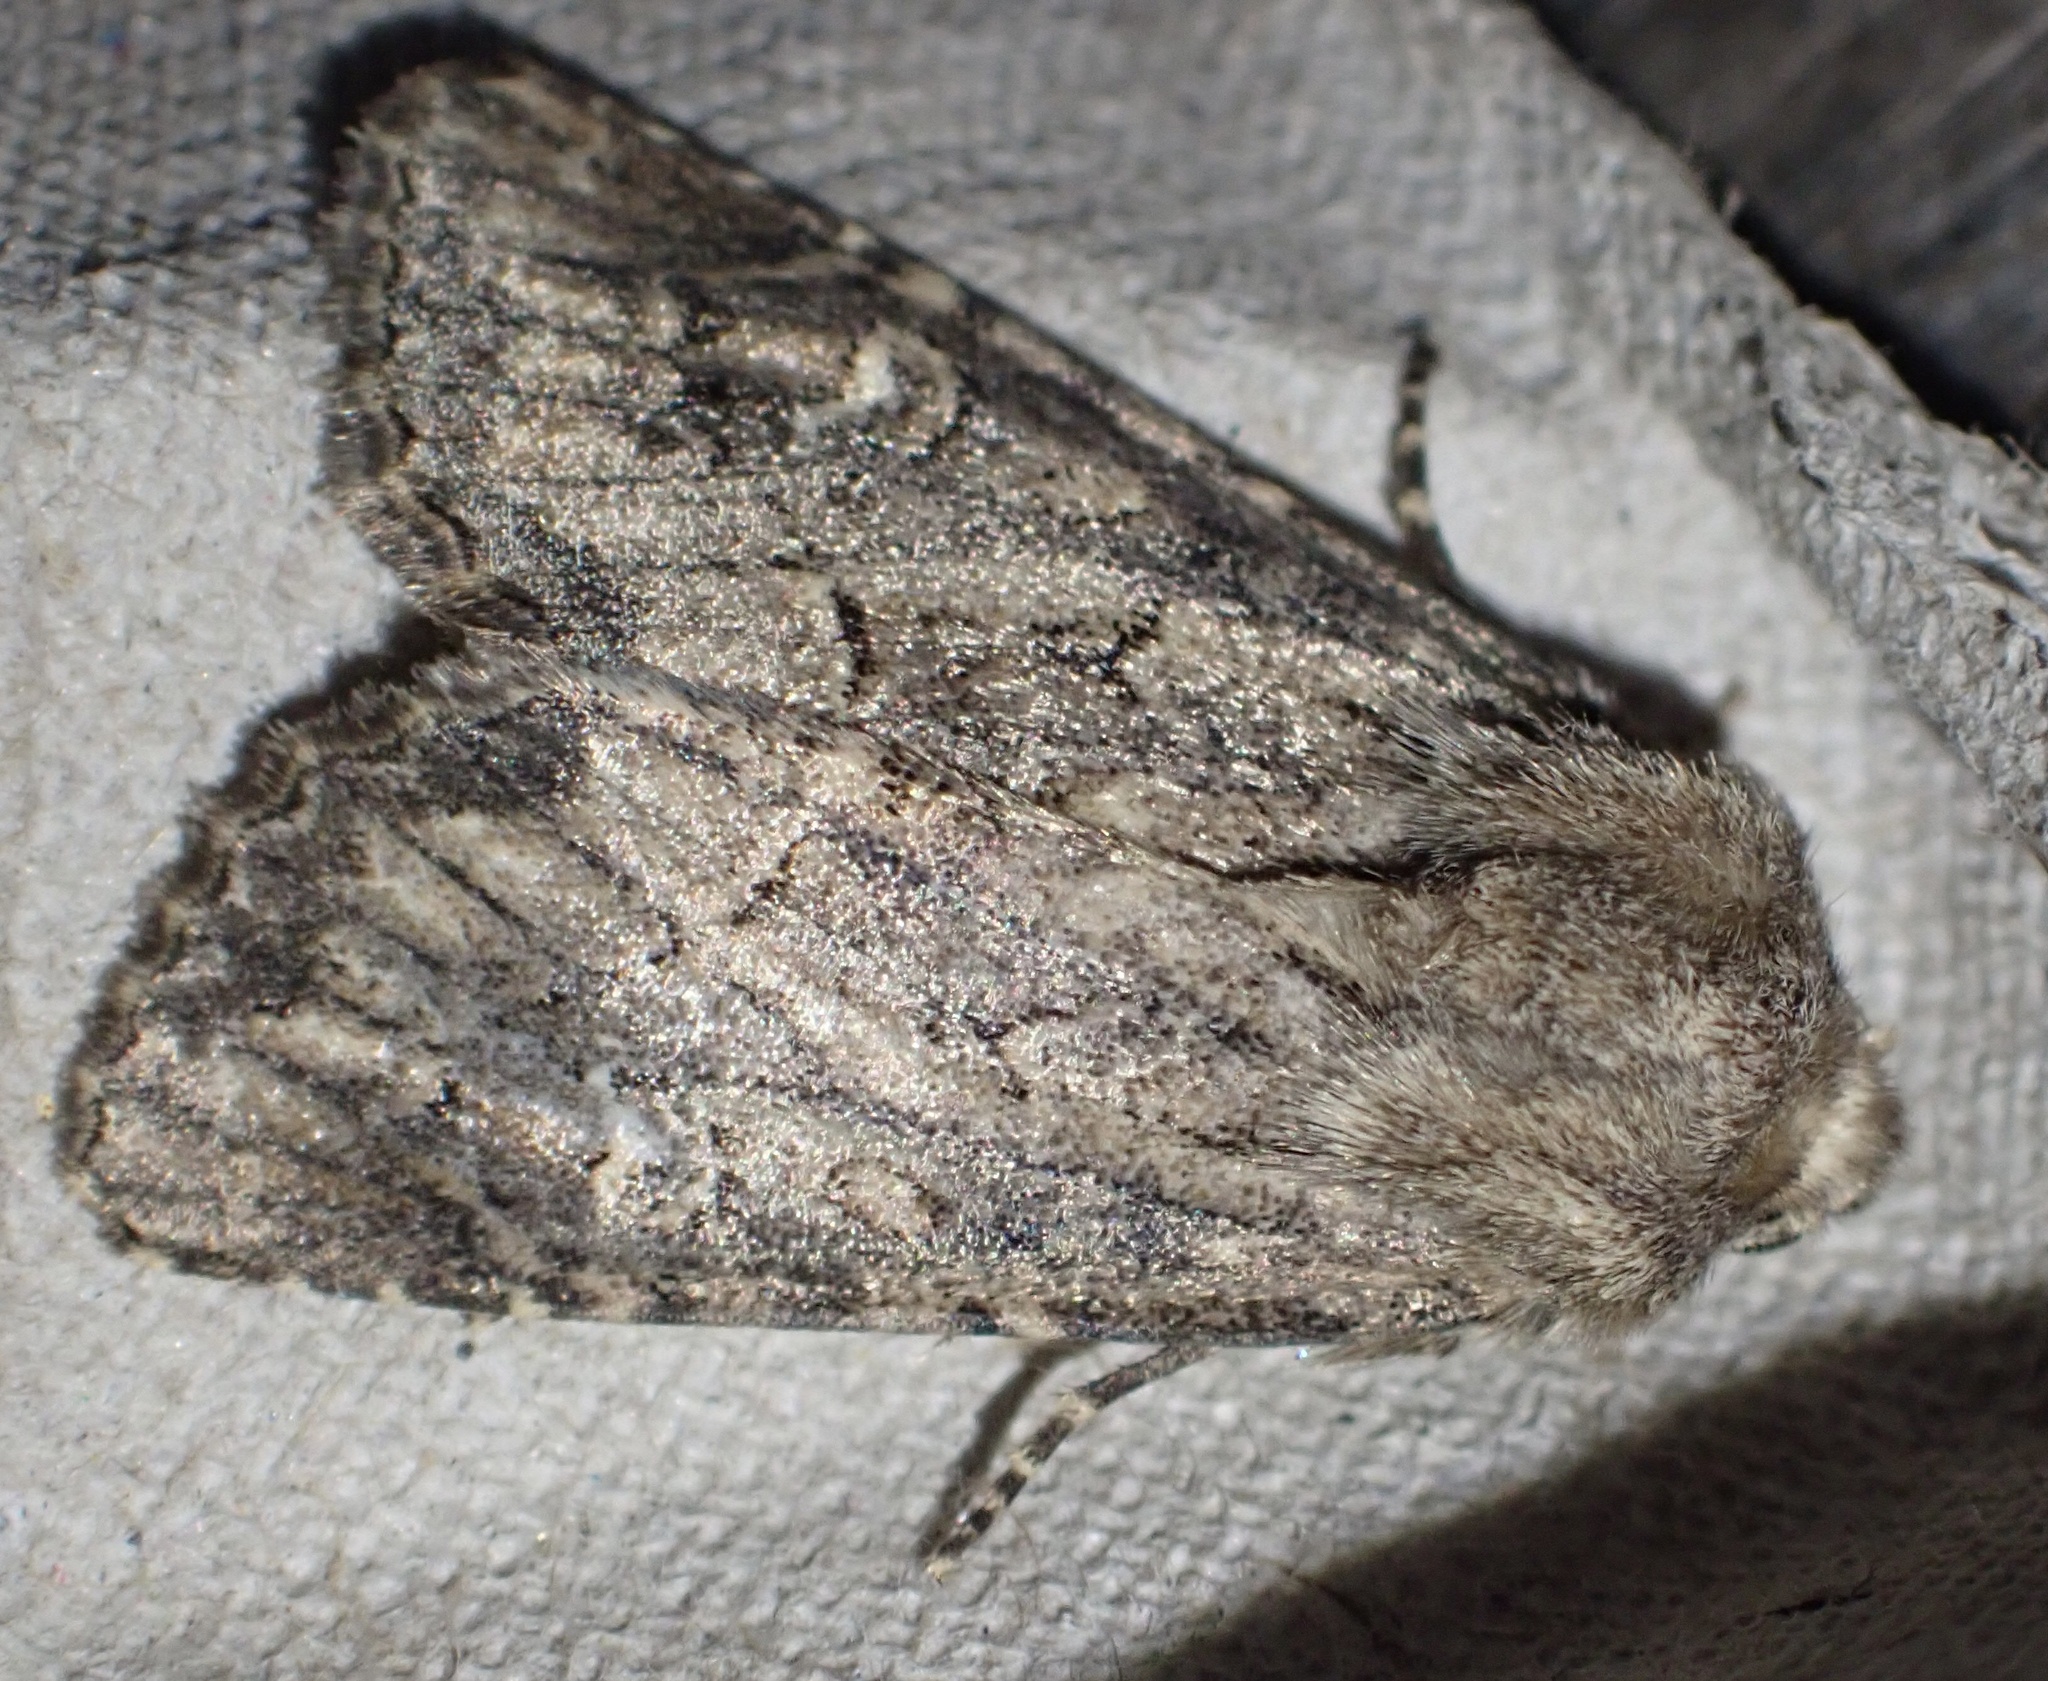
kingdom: Animalia
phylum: Arthropoda
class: Insecta
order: Lepidoptera
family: Noctuidae
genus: Luperina
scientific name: Luperina testacea
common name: Flounced rustic
